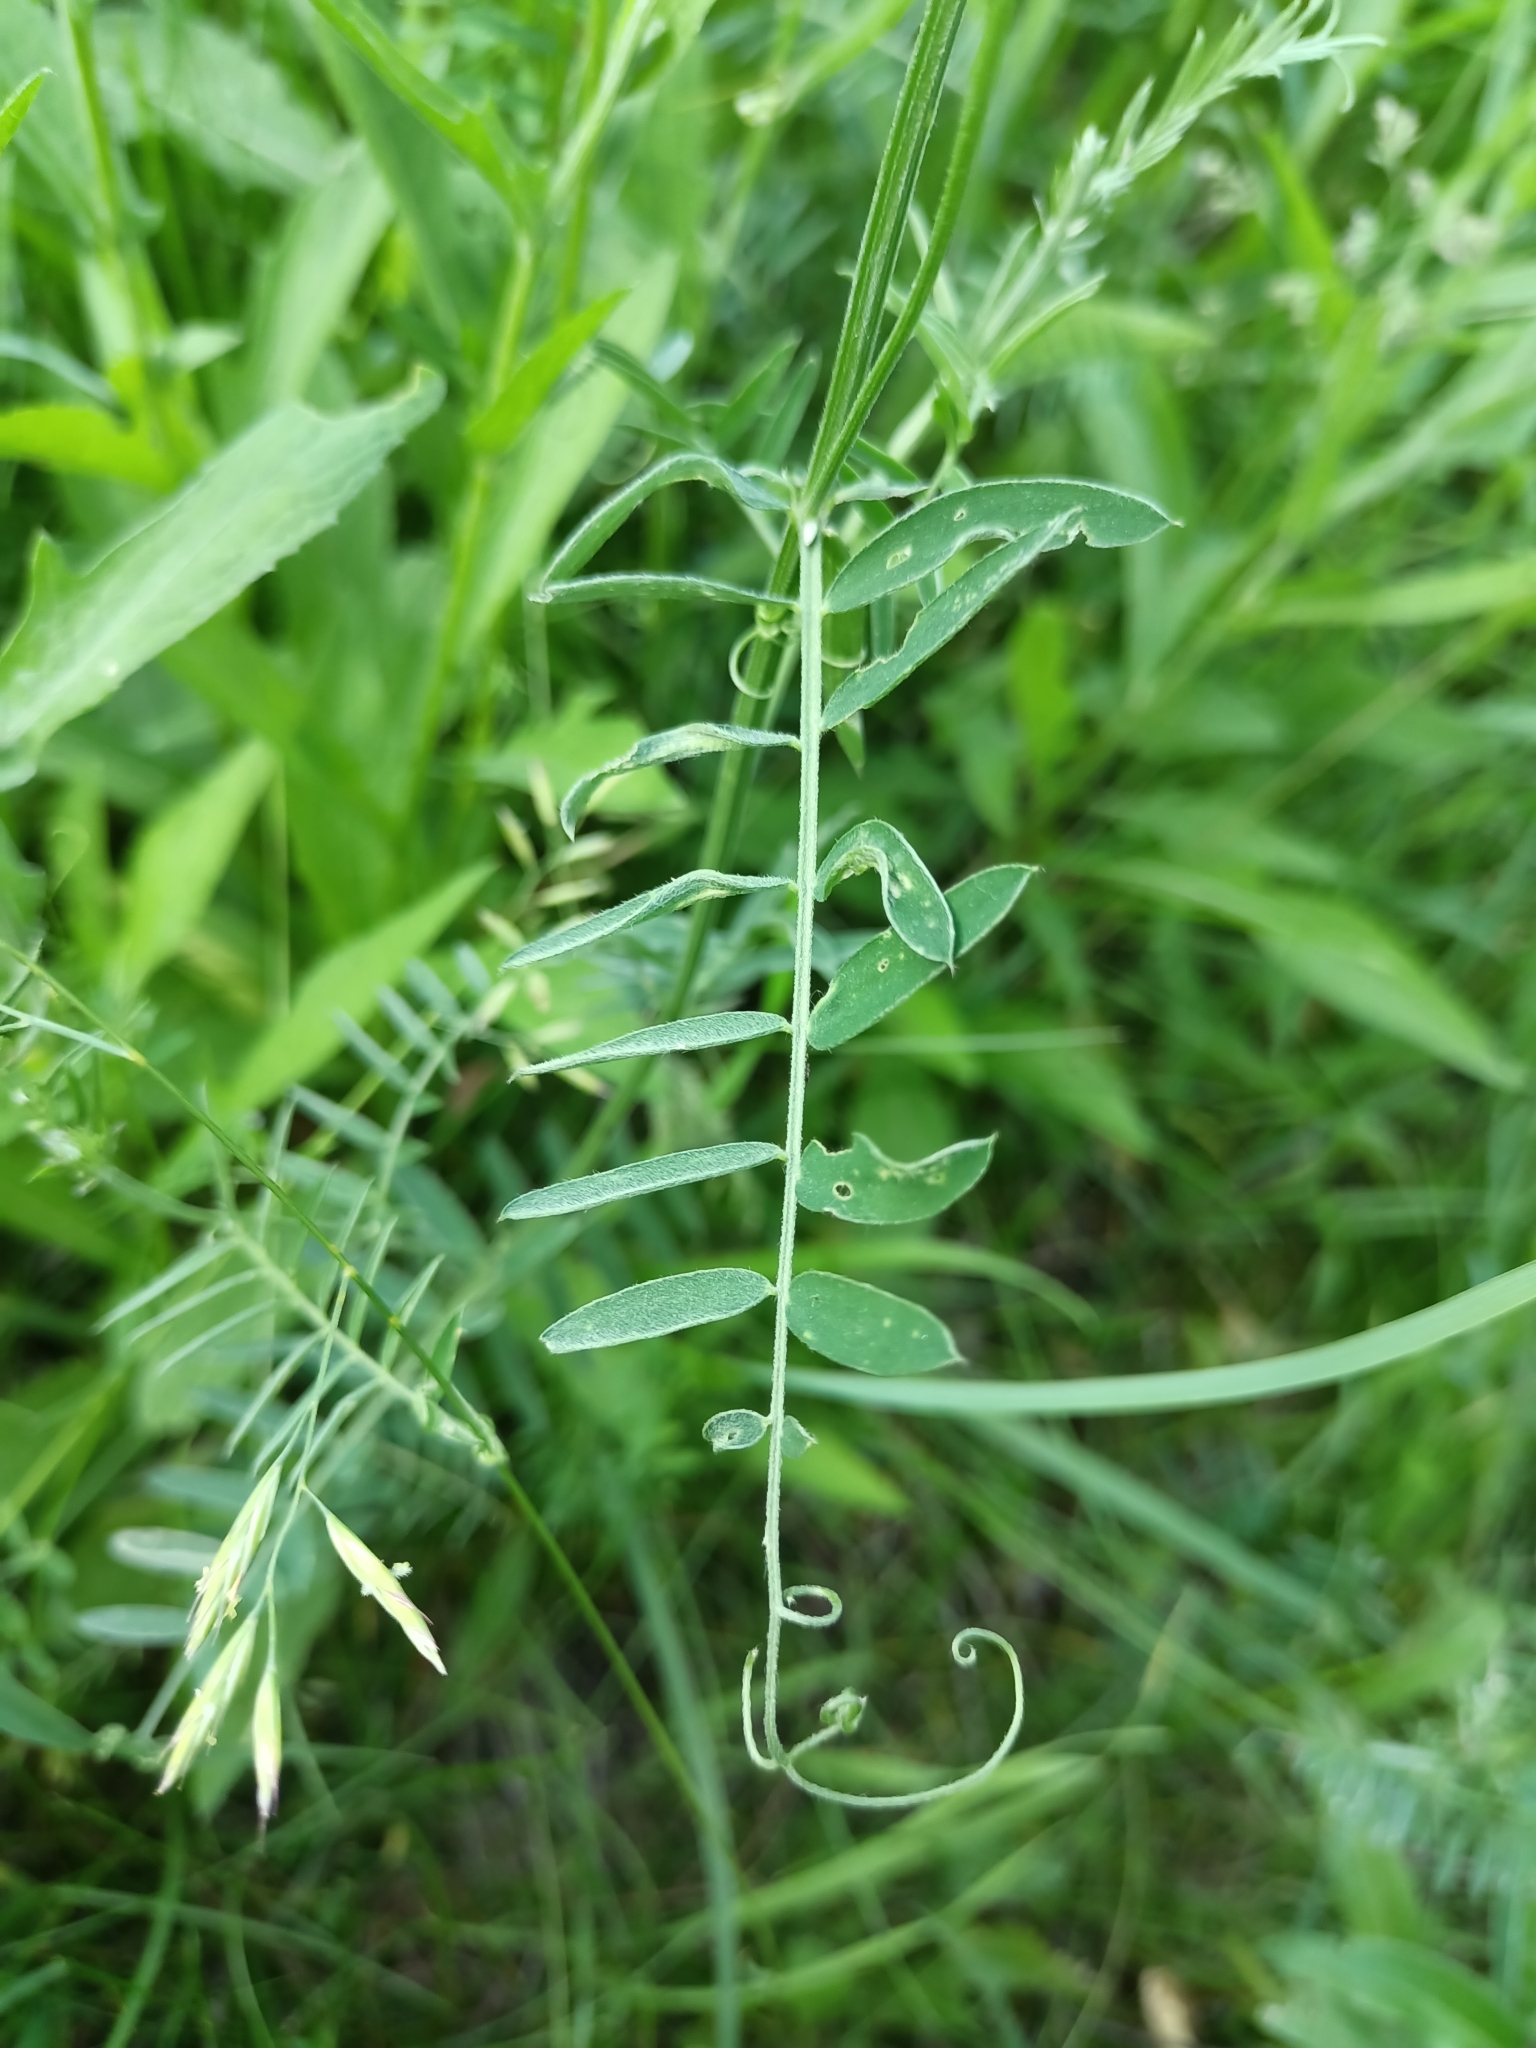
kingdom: Plantae
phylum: Tracheophyta
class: Magnoliopsida
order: Fabales
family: Fabaceae
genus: Vicia
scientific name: Vicia cracca
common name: Bird vetch
